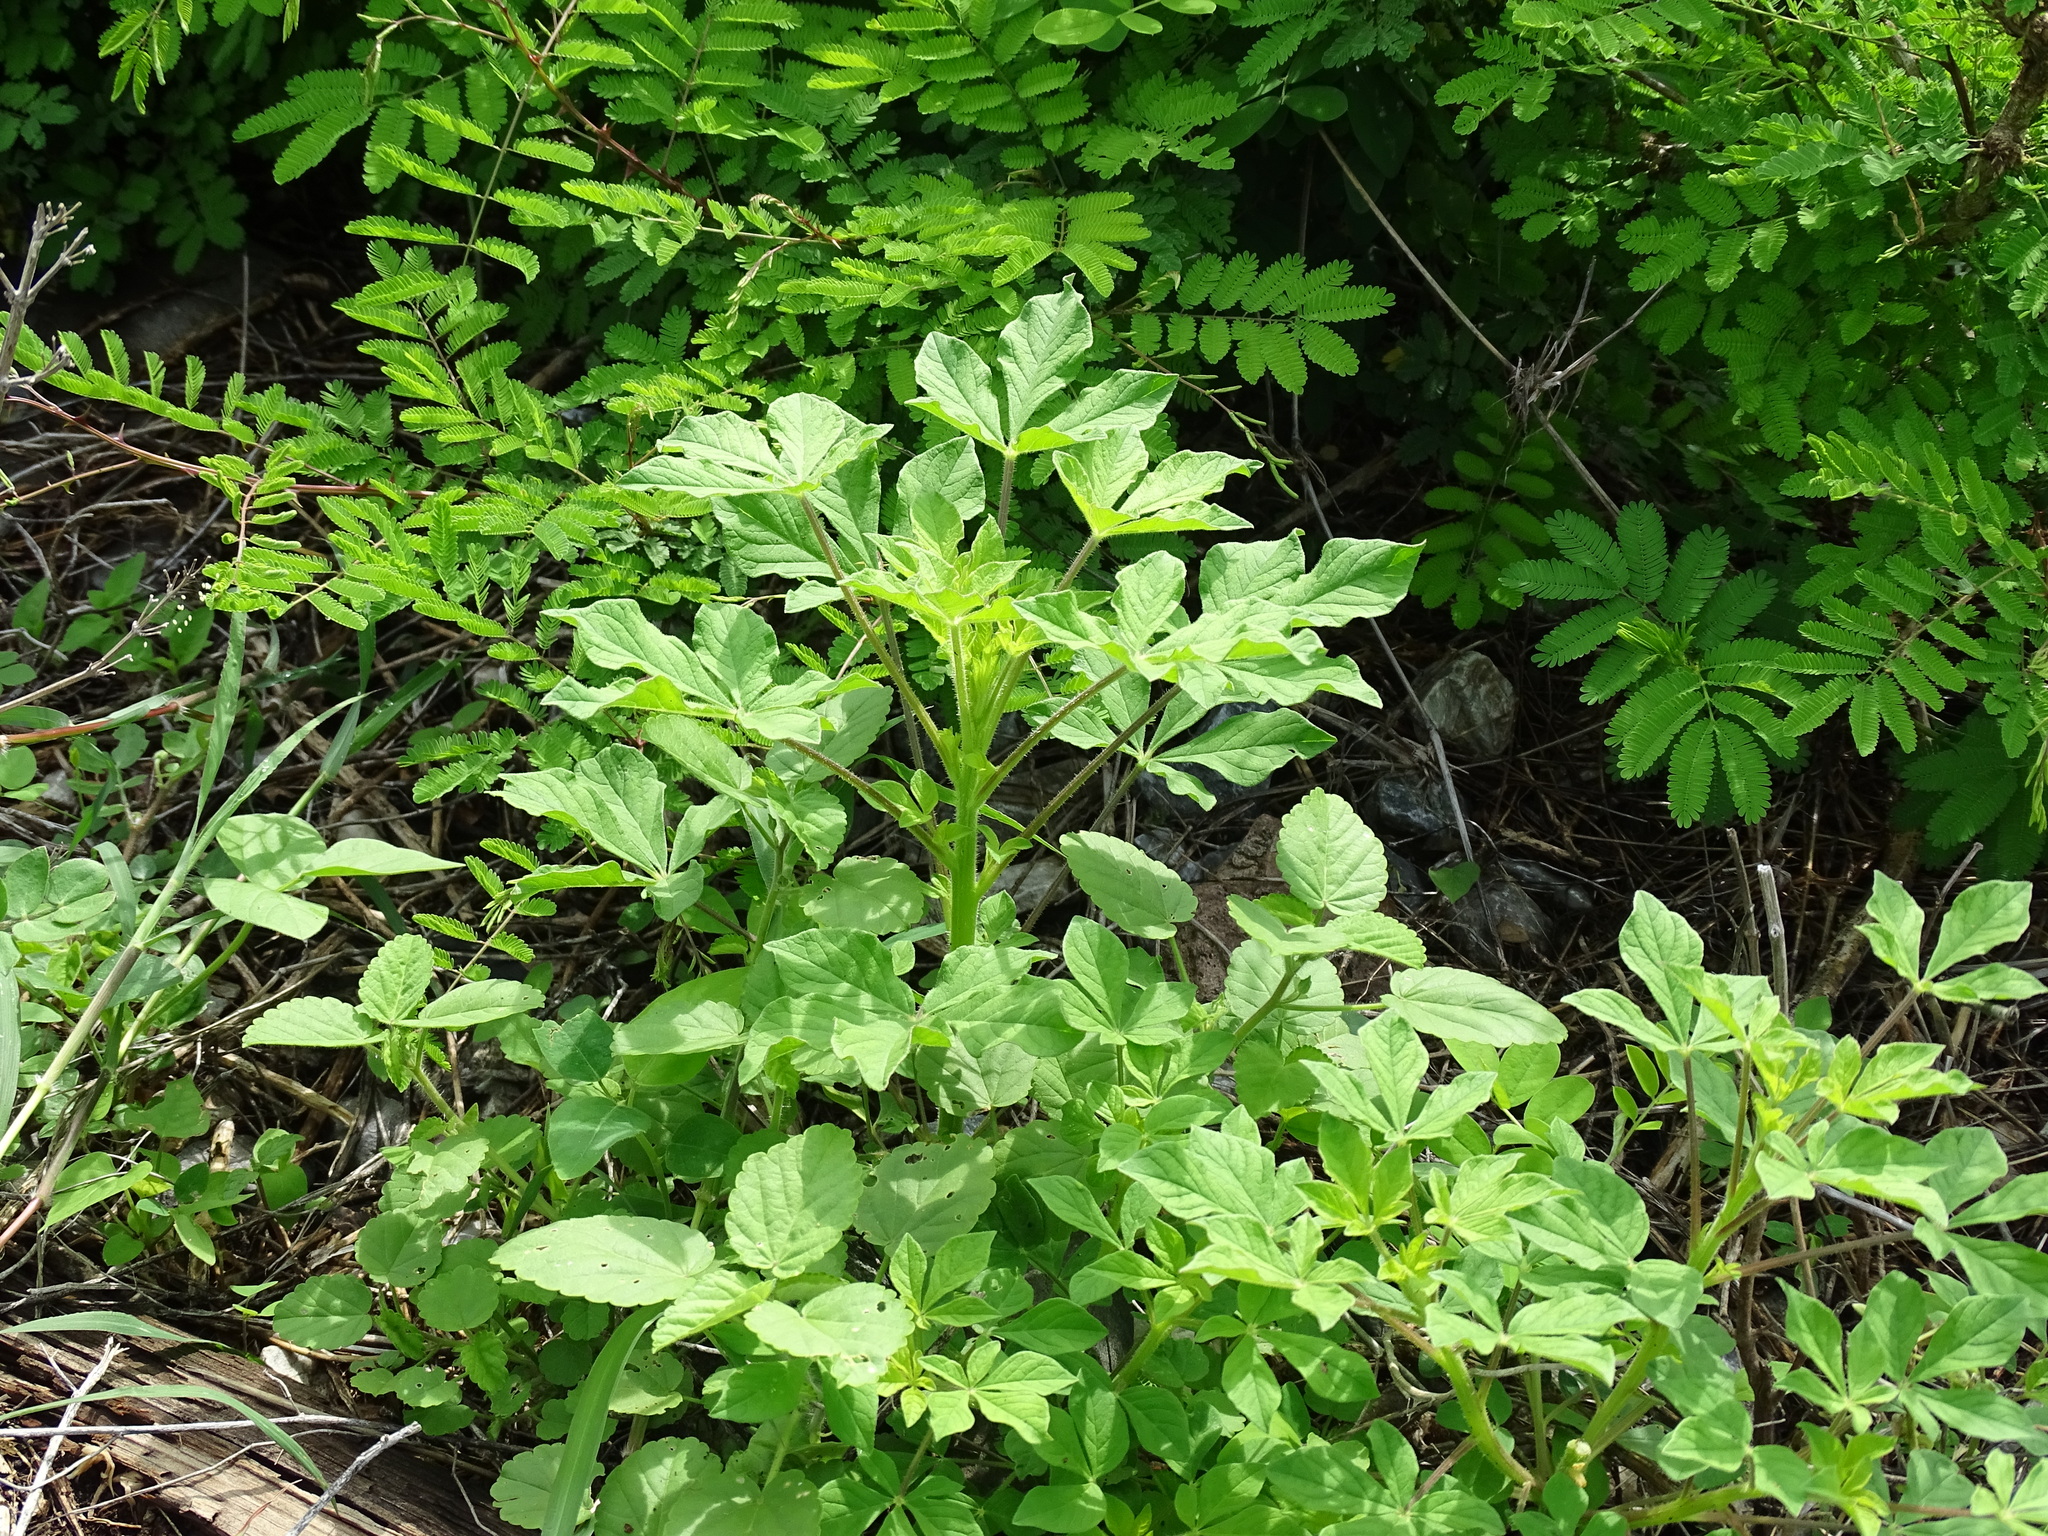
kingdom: Plantae
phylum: Tracheophyta
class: Magnoliopsida
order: Brassicales
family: Cleomaceae
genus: Arivela
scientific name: Arivela viscosa
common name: Asian spiderflower
